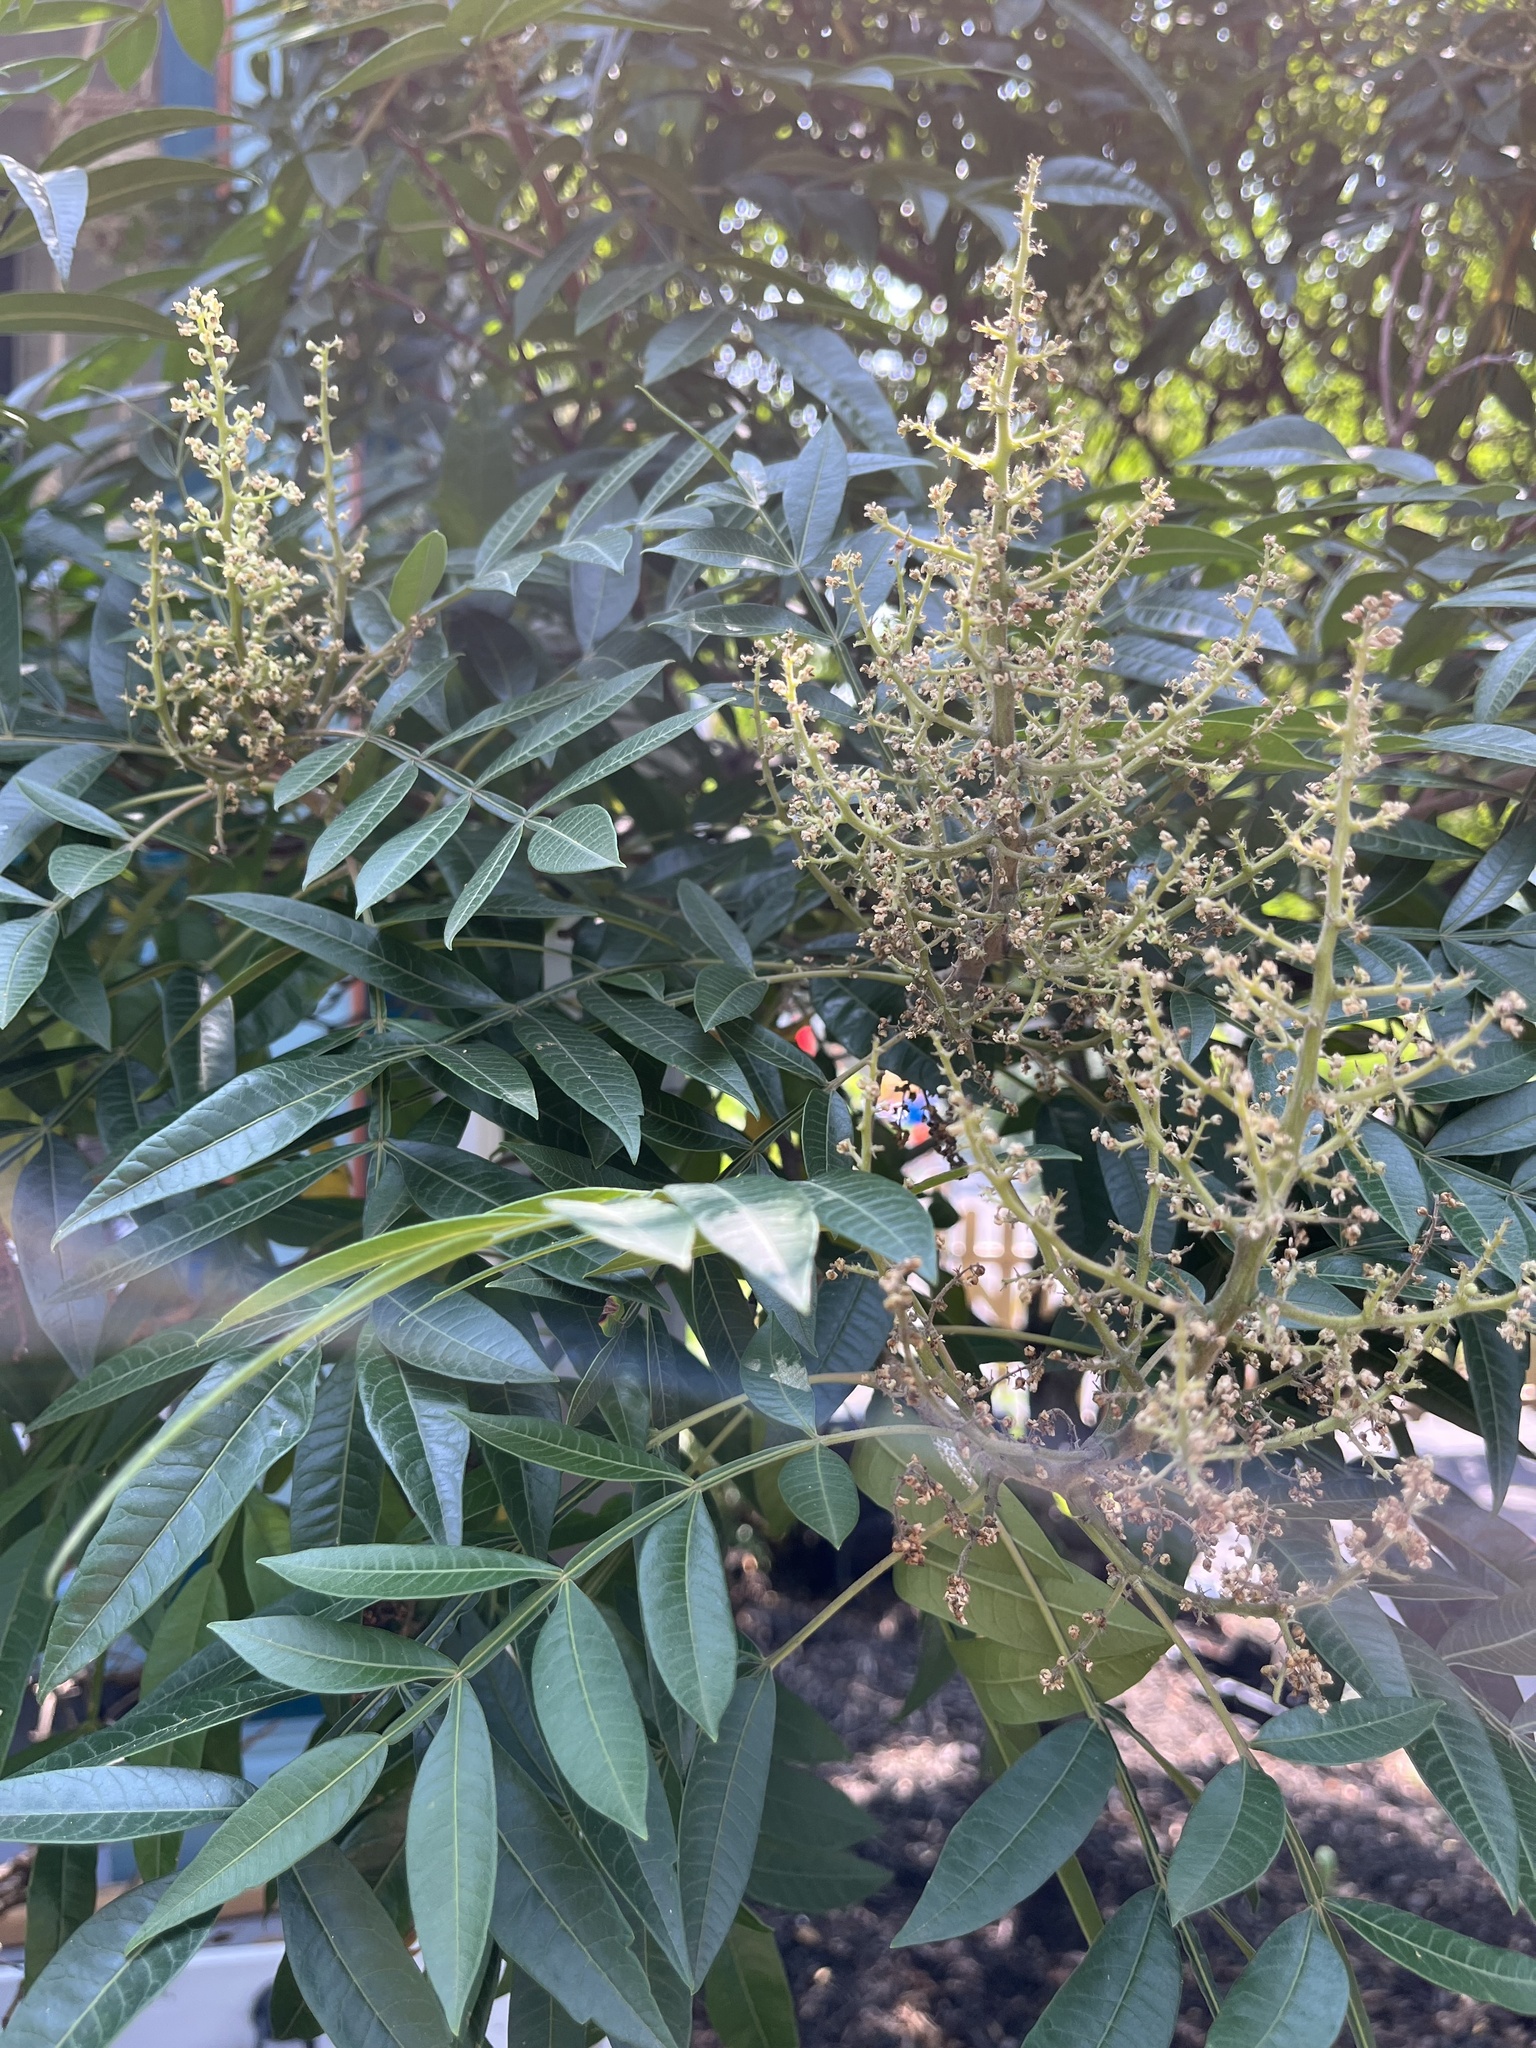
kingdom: Plantae
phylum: Tracheophyta
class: Magnoliopsida
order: Sapindales
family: Anacardiaceae
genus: Rhus
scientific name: Rhus copallina
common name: Shining sumac
